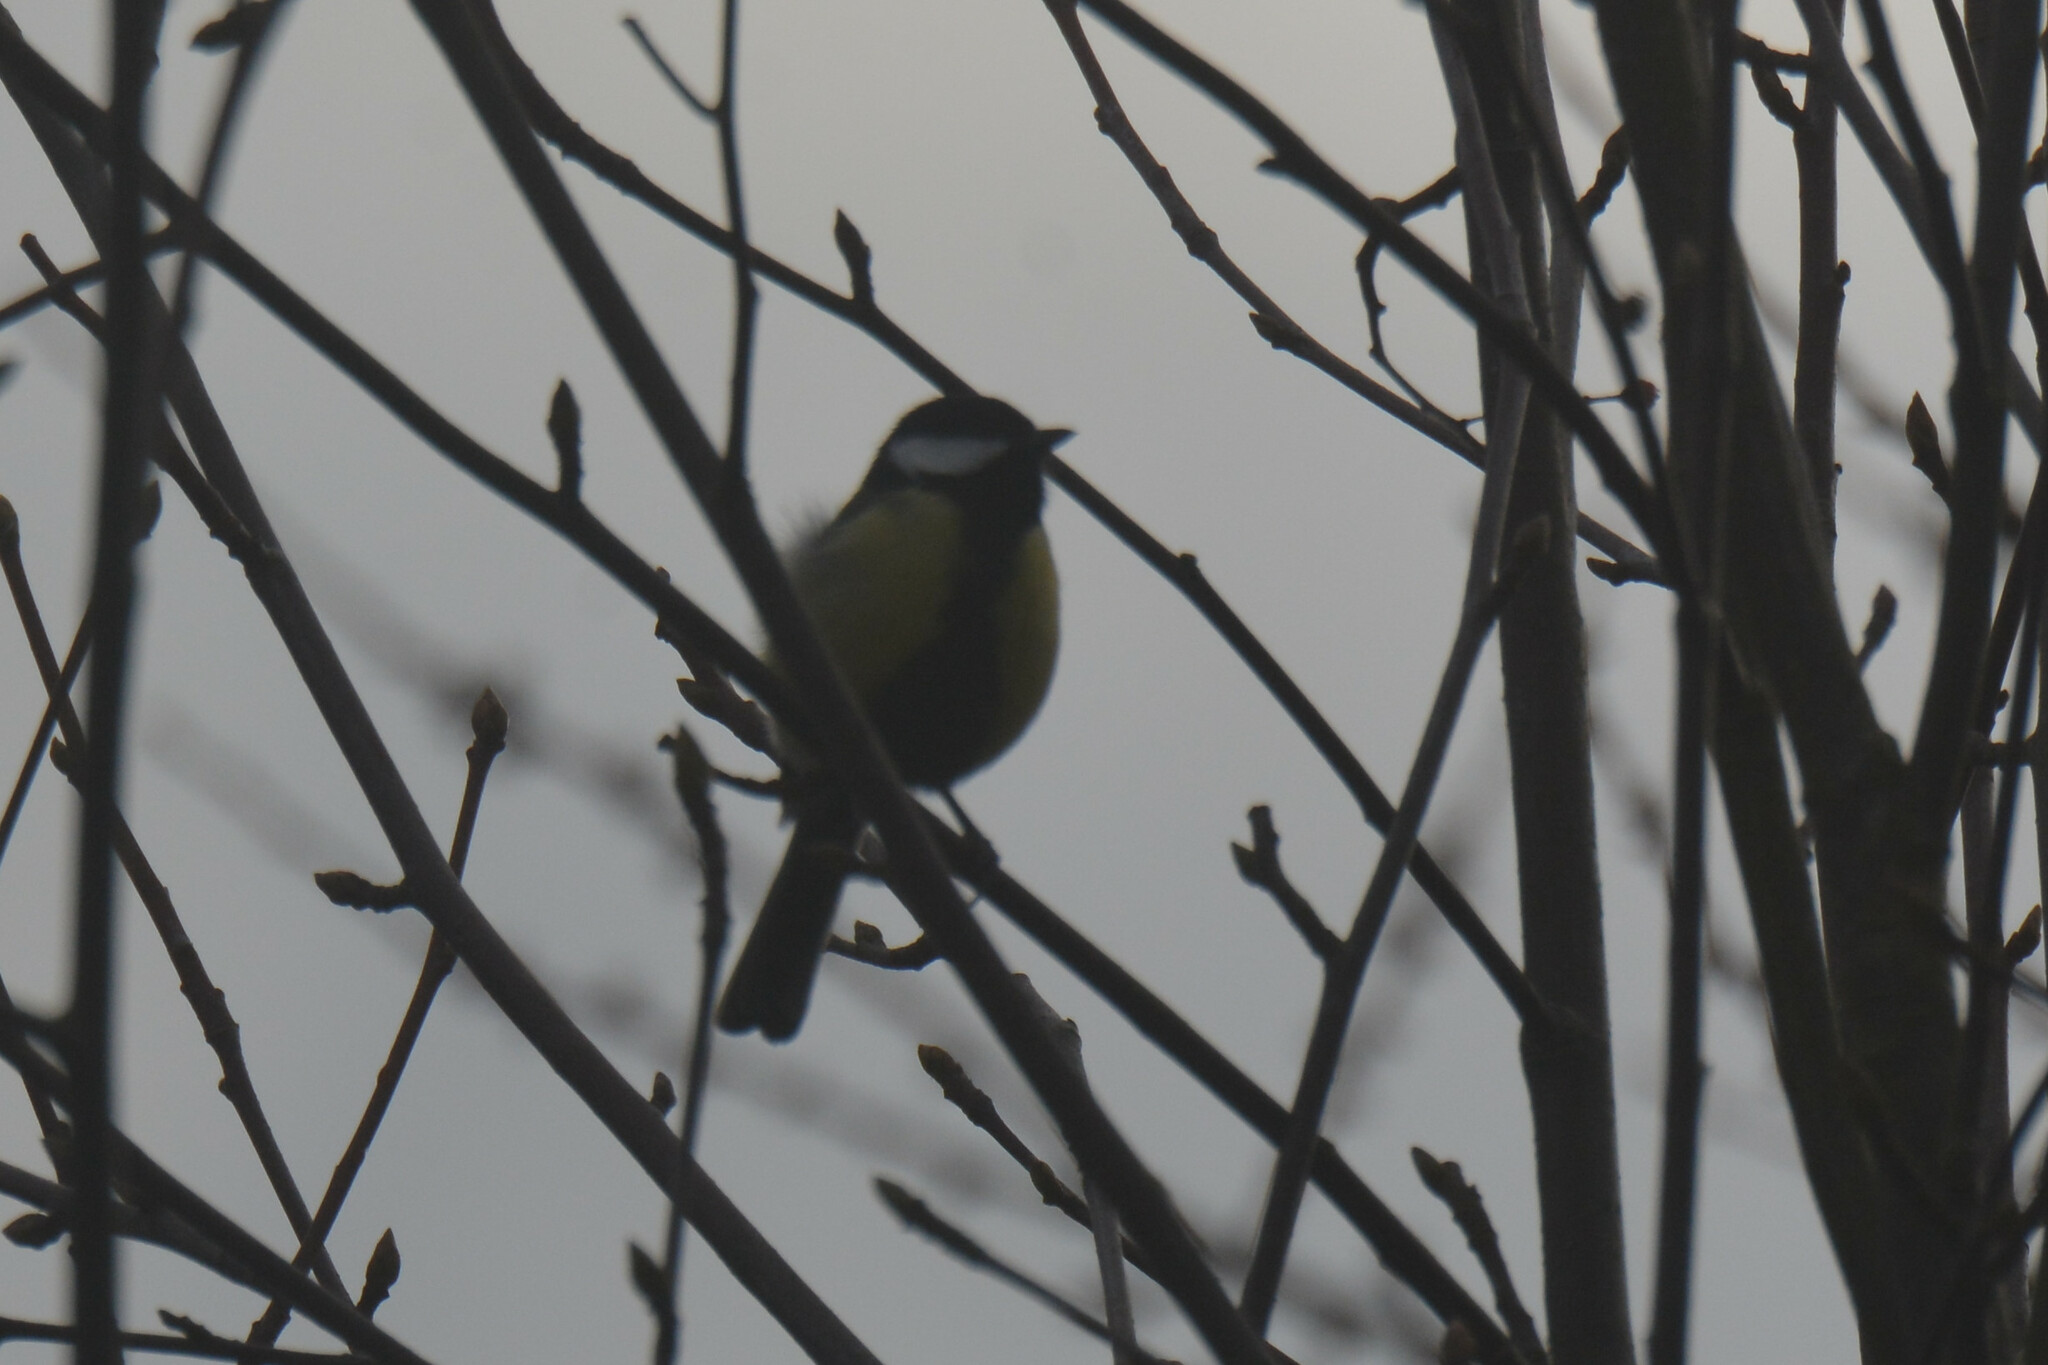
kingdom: Animalia
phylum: Chordata
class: Aves
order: Passeriformes
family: Paridae
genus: Parus
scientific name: Parus major
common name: Great tit
